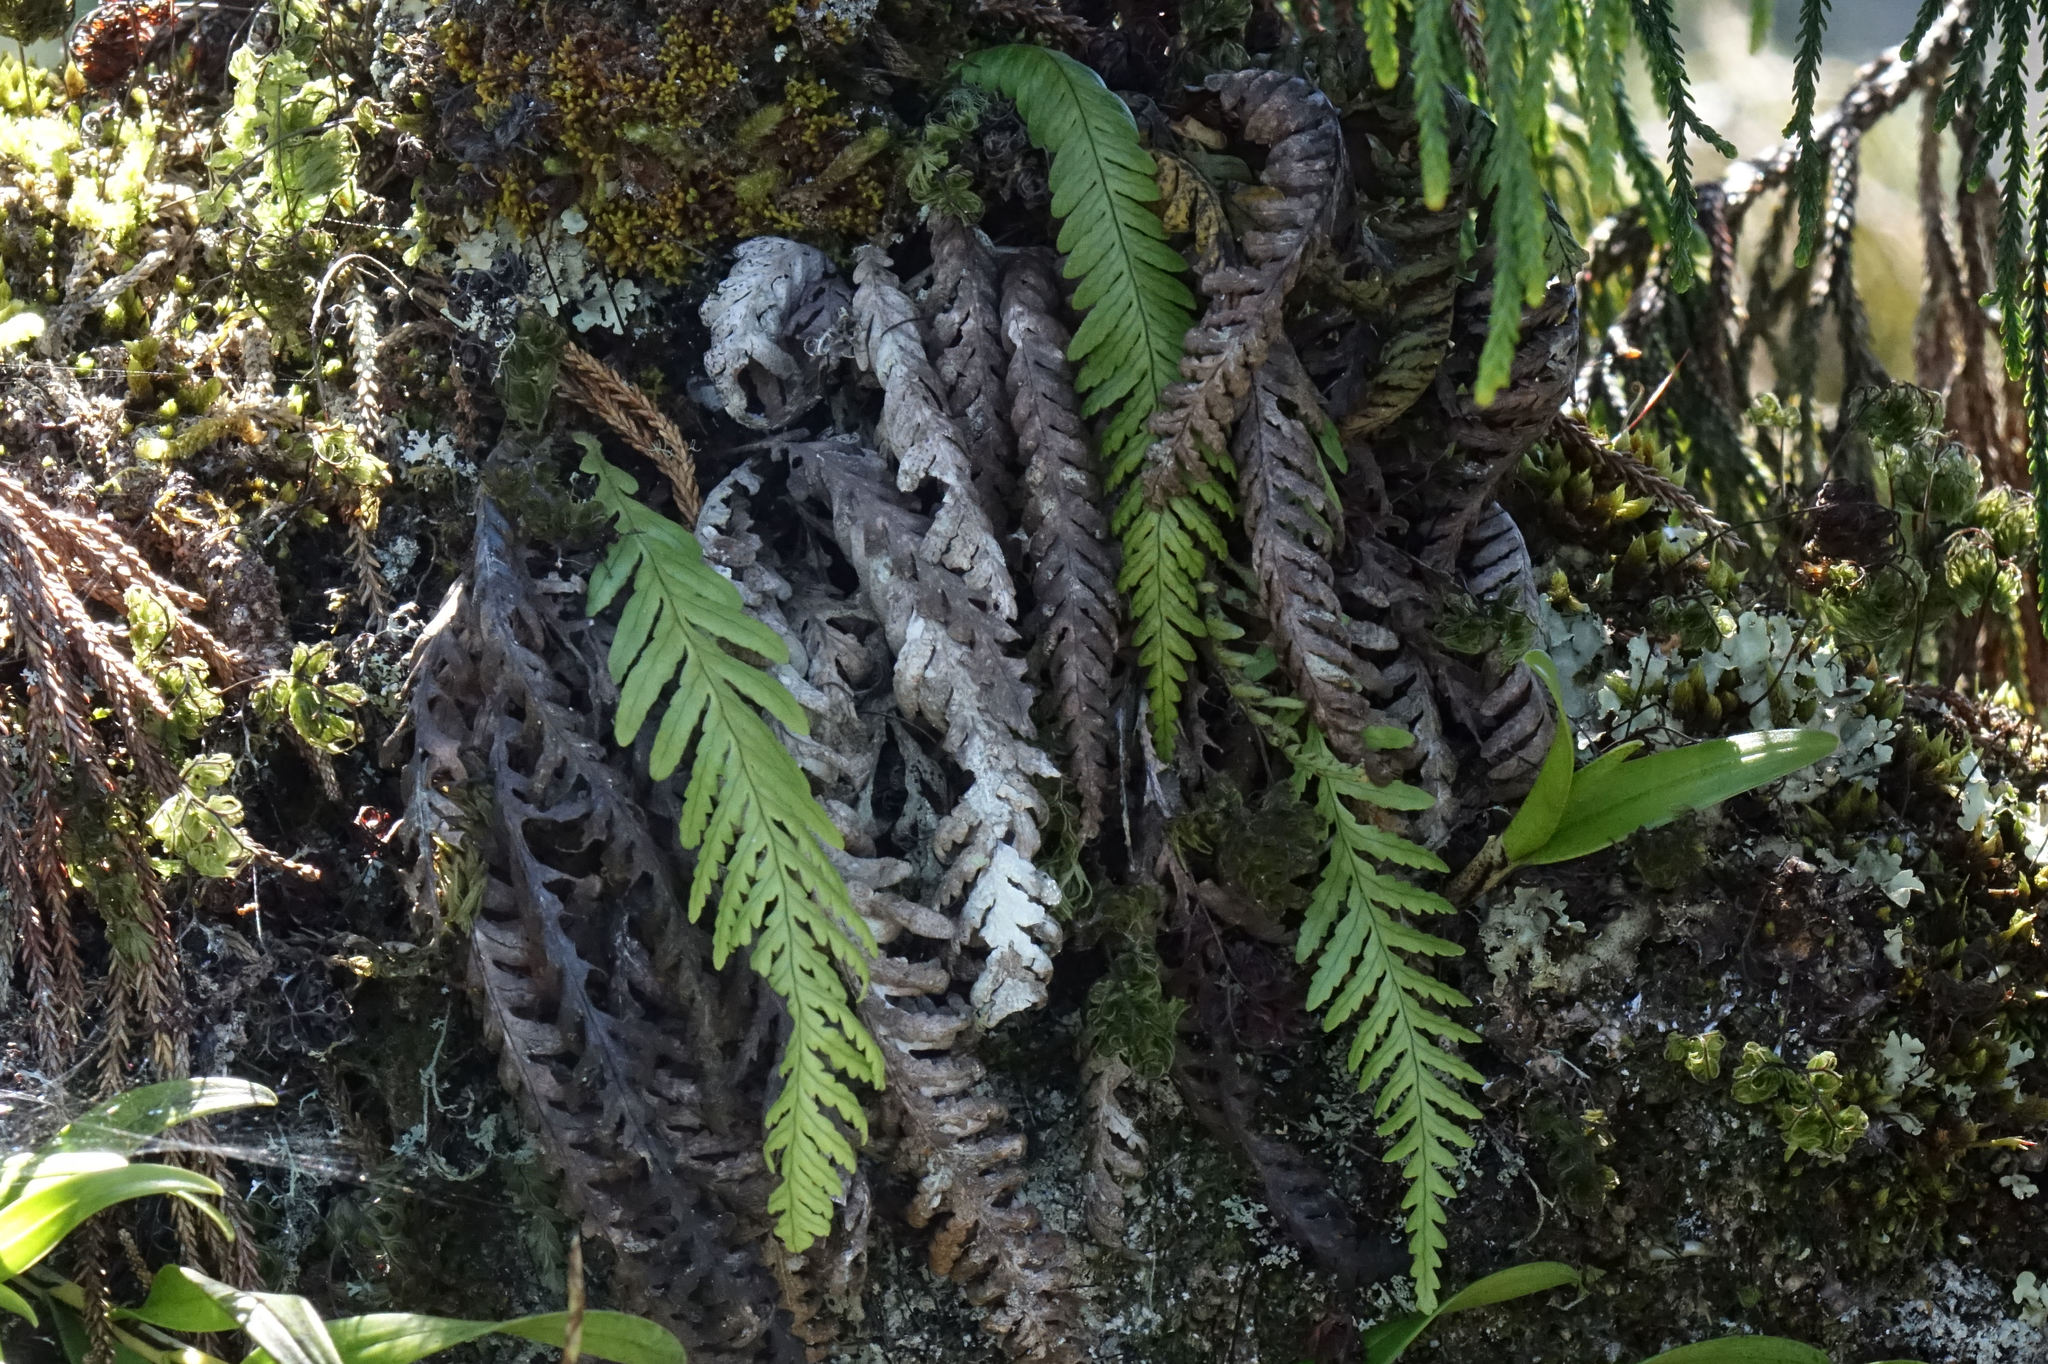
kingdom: Plantae
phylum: Tracheophyta
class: Polypodiopsida
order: Polypodiales
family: Polypodiaceae
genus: Notogrammitis
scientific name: Notogrammitis heterophylla
